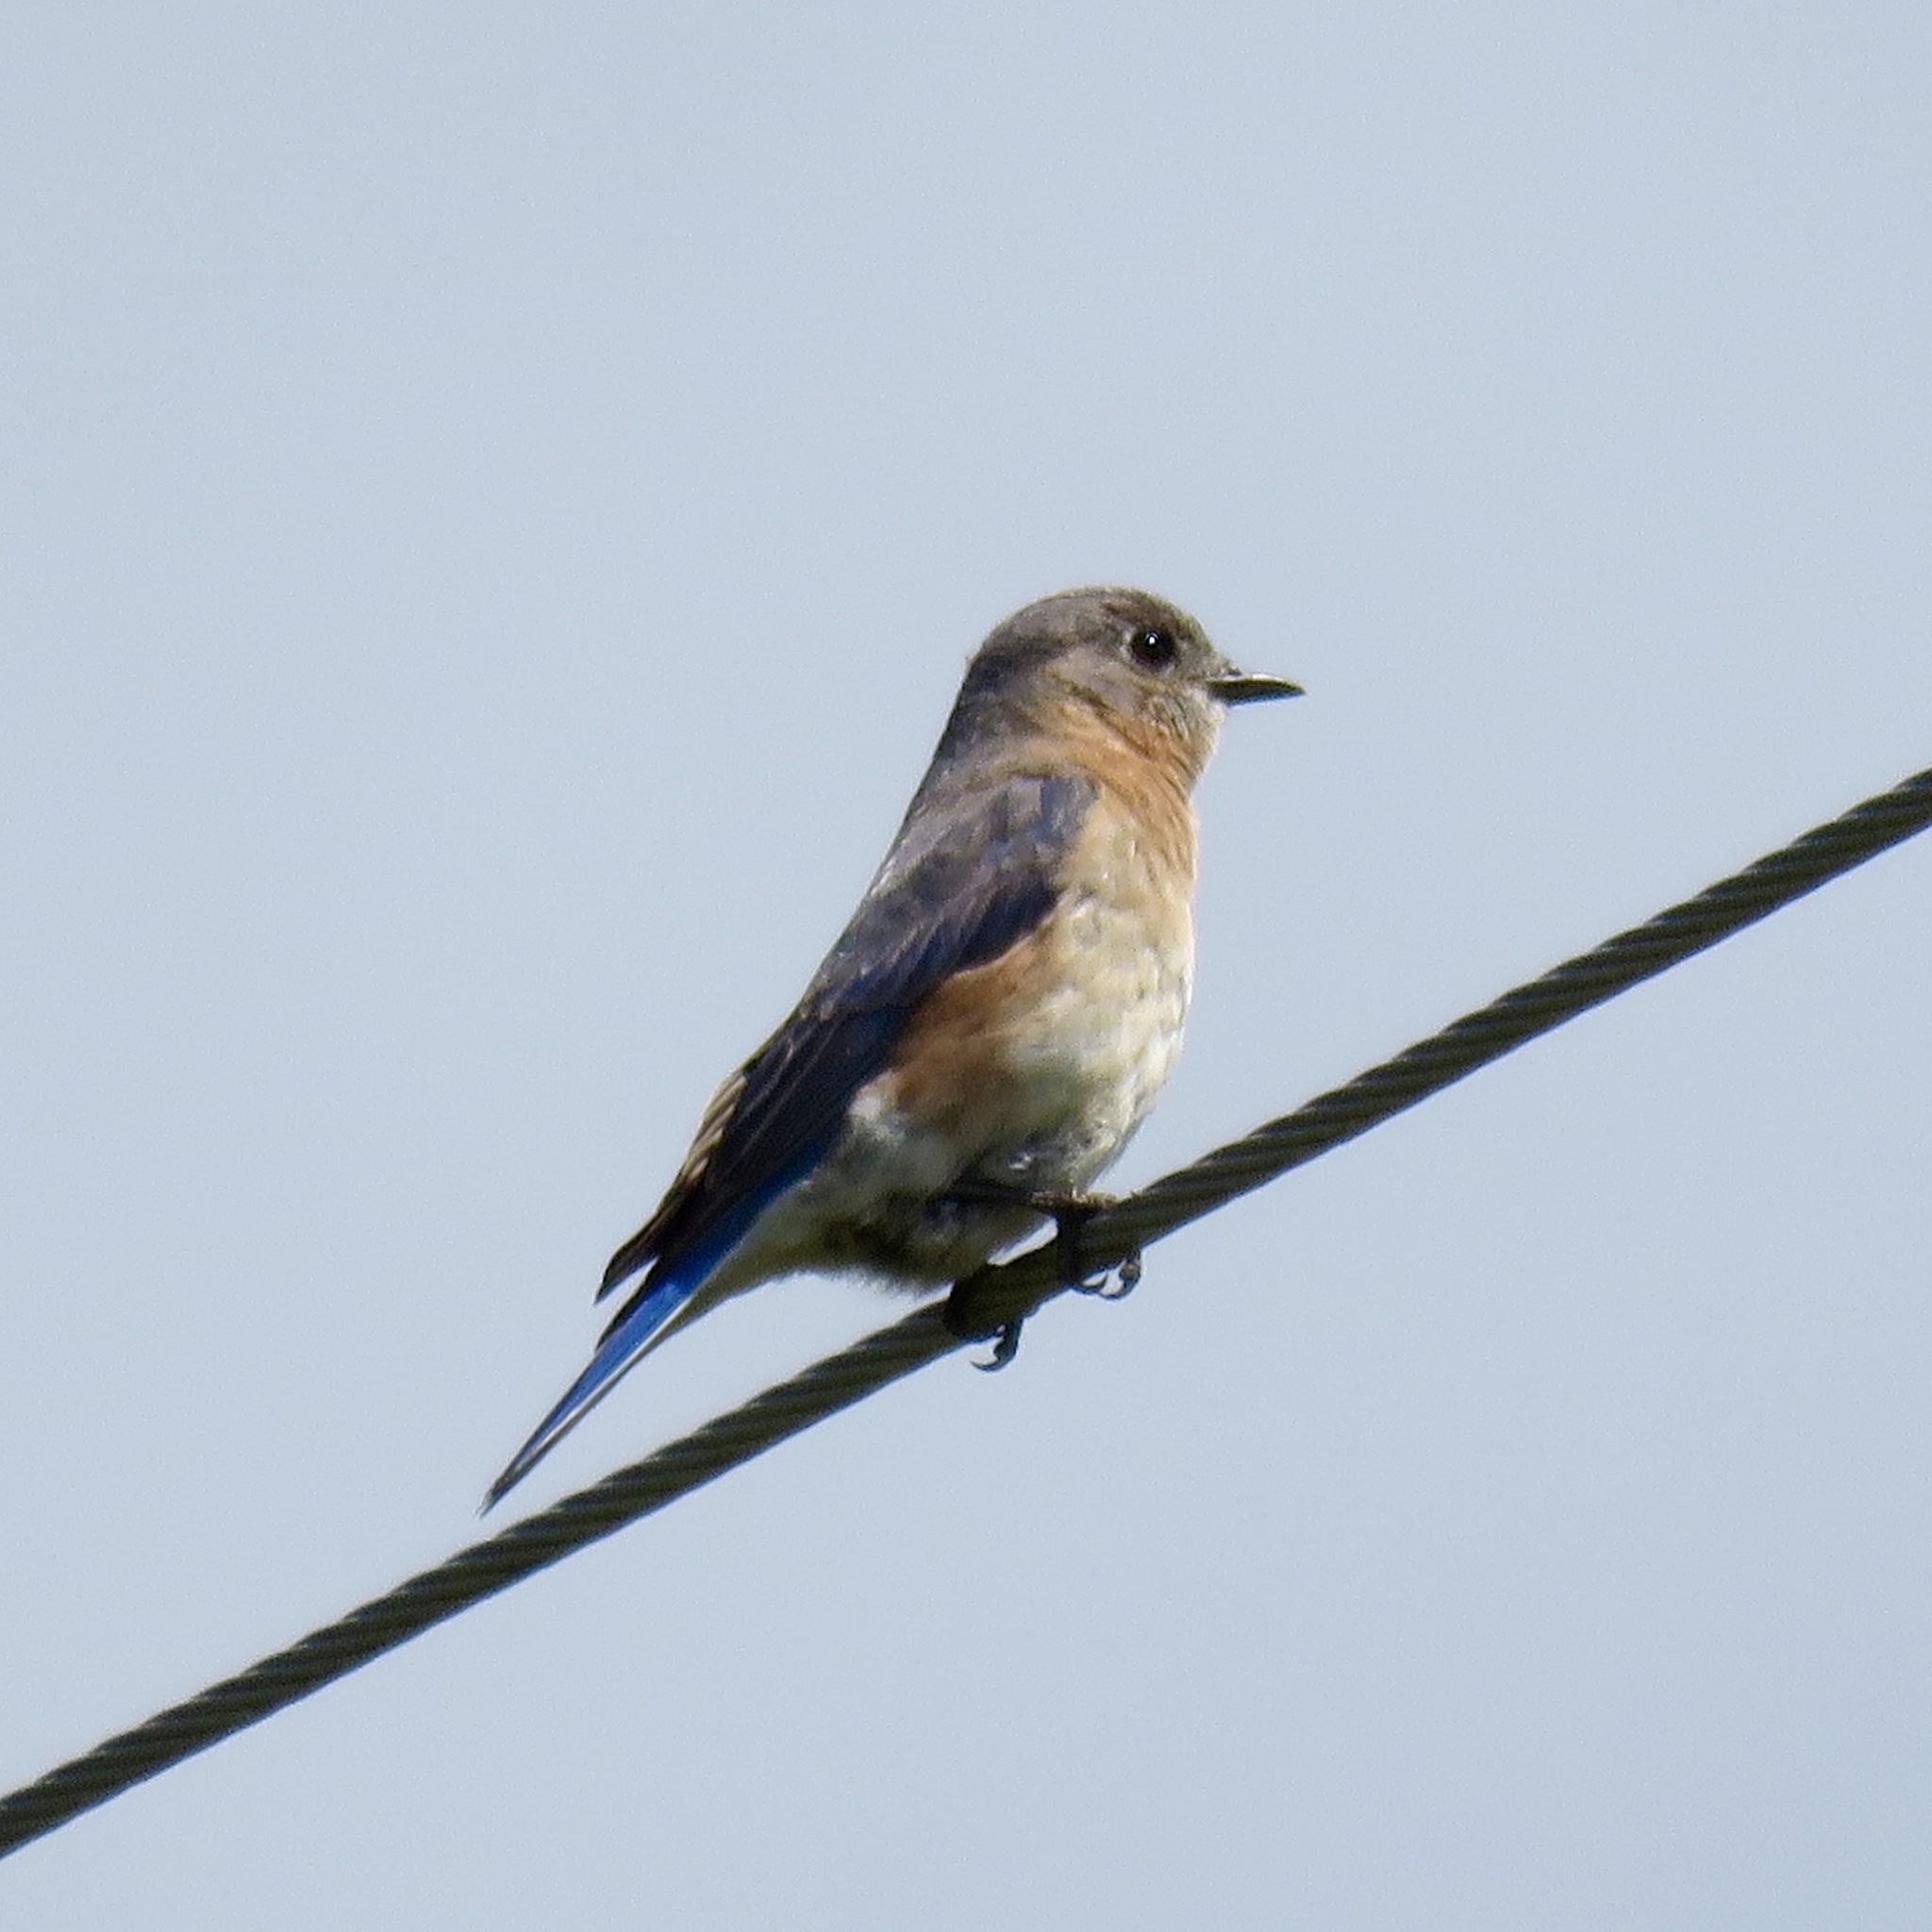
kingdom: Animalia
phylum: Chordata
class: Aves
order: Passeriformes
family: Turdidae
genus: Sialia
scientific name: Sialia sialis
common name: Eastern bluebird
